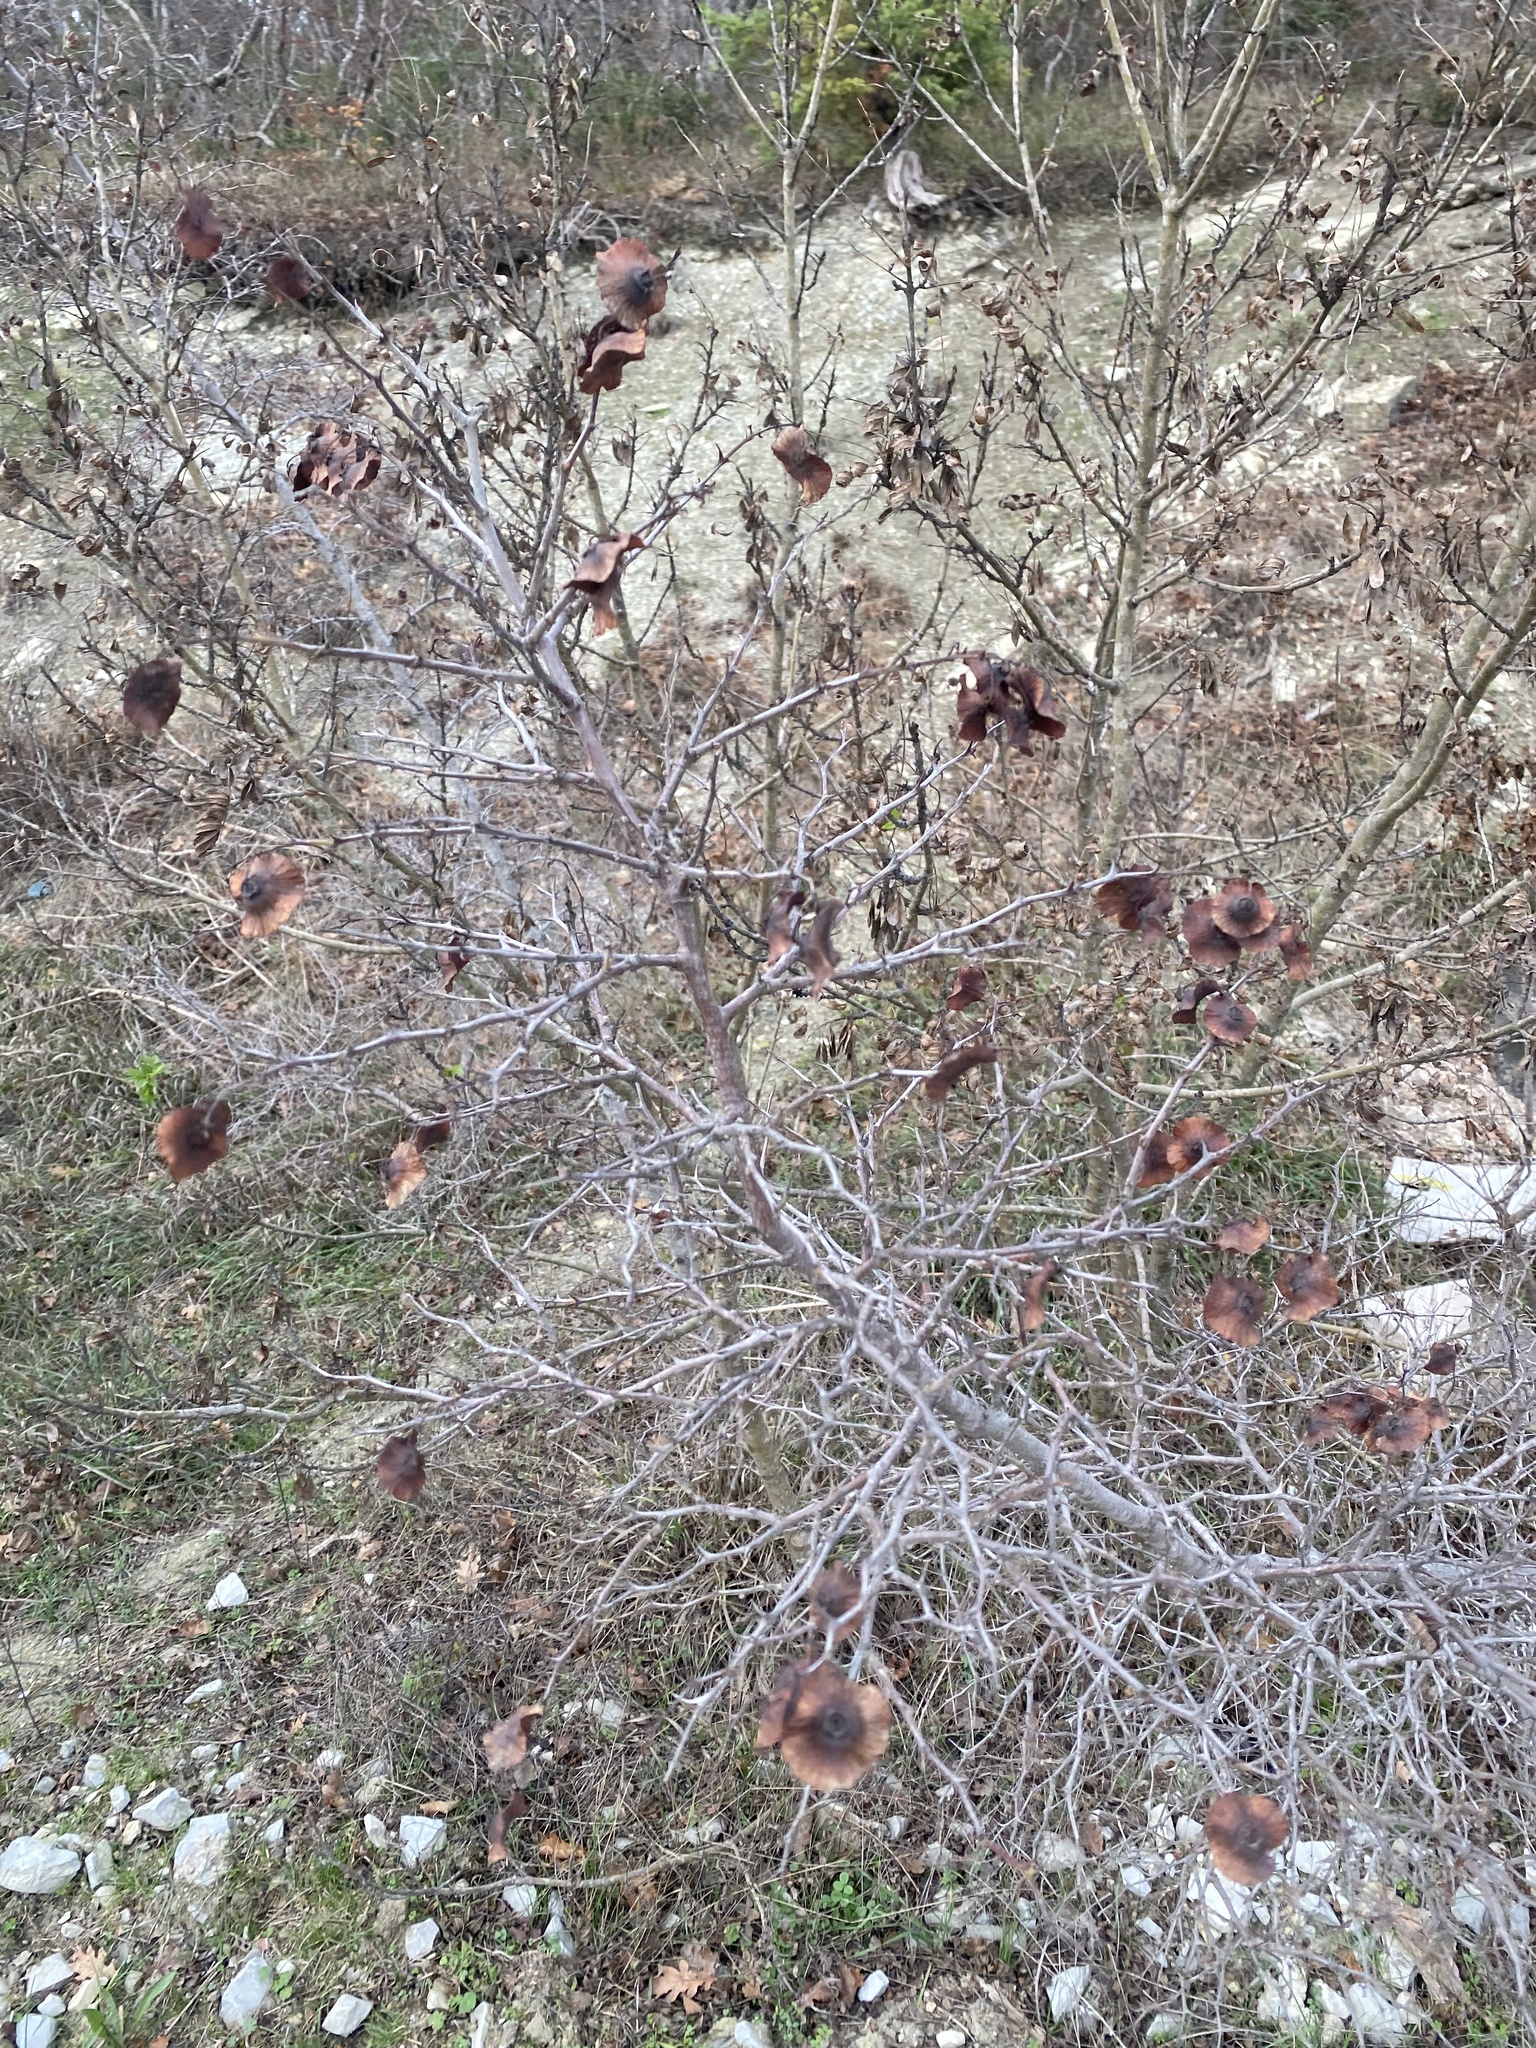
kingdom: Plantae
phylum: Tracheophyta
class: Magnoliopsida
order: Rosales
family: Rhamnaceae
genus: Paliurus
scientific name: Paliurus spina-christi
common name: Jeruselem thorn
